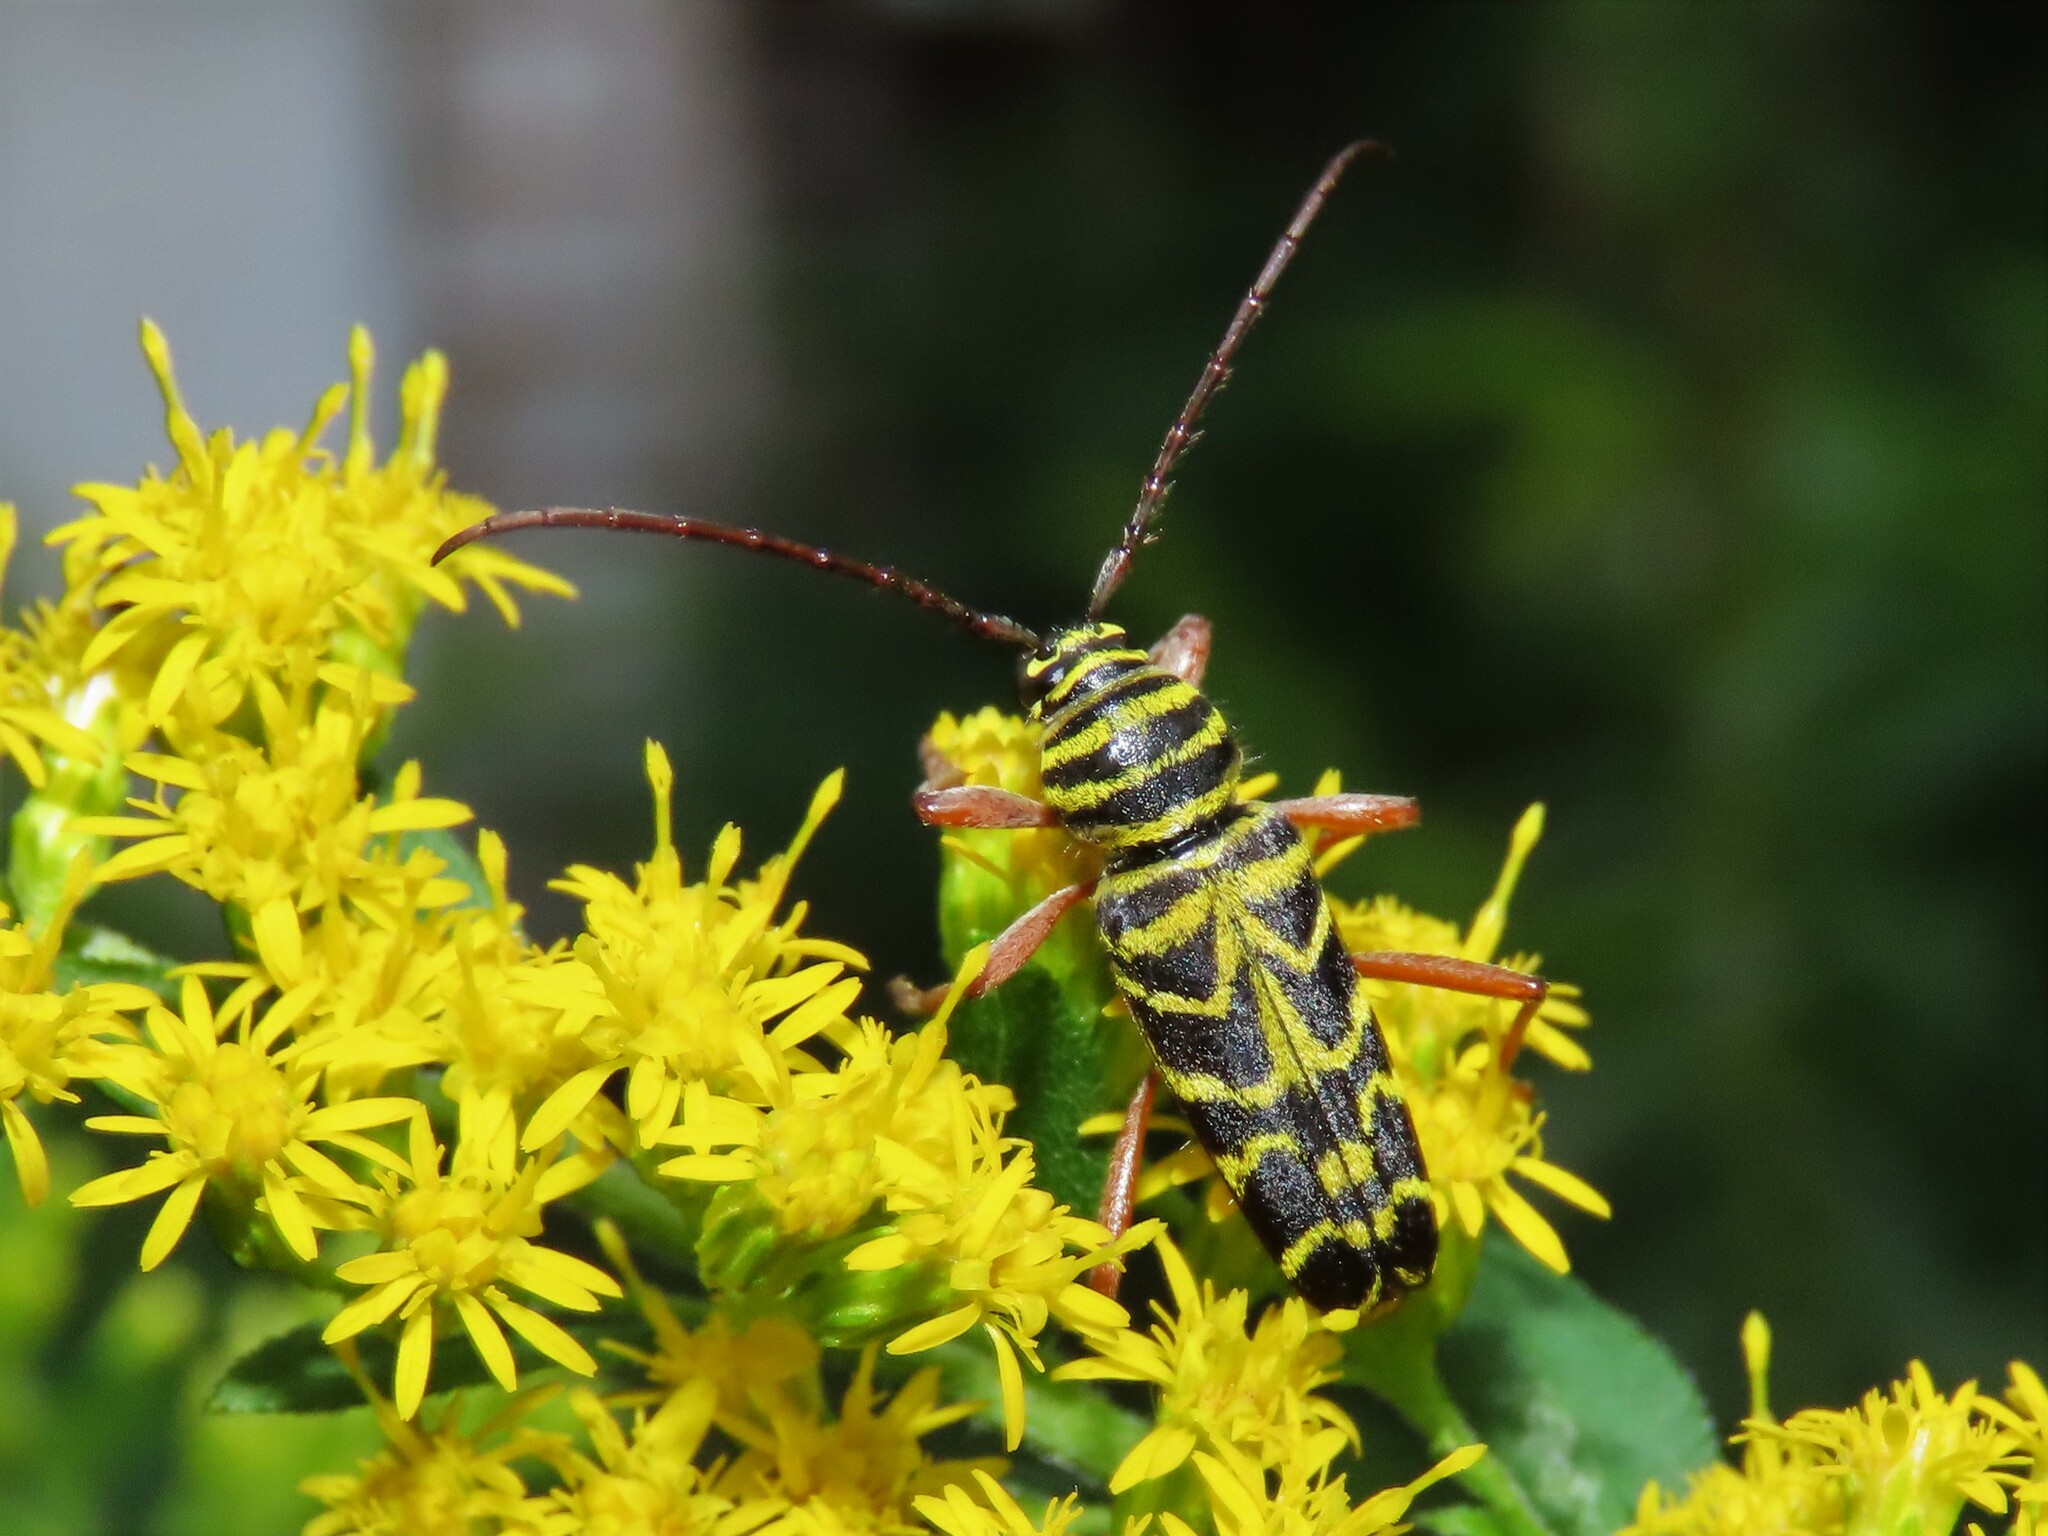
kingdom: Animalia
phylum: Arthropoda
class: Insecta
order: Coleoptera
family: Cerambycidae
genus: Megacyllene
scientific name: Megacyllene robiniae
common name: Locust borer
